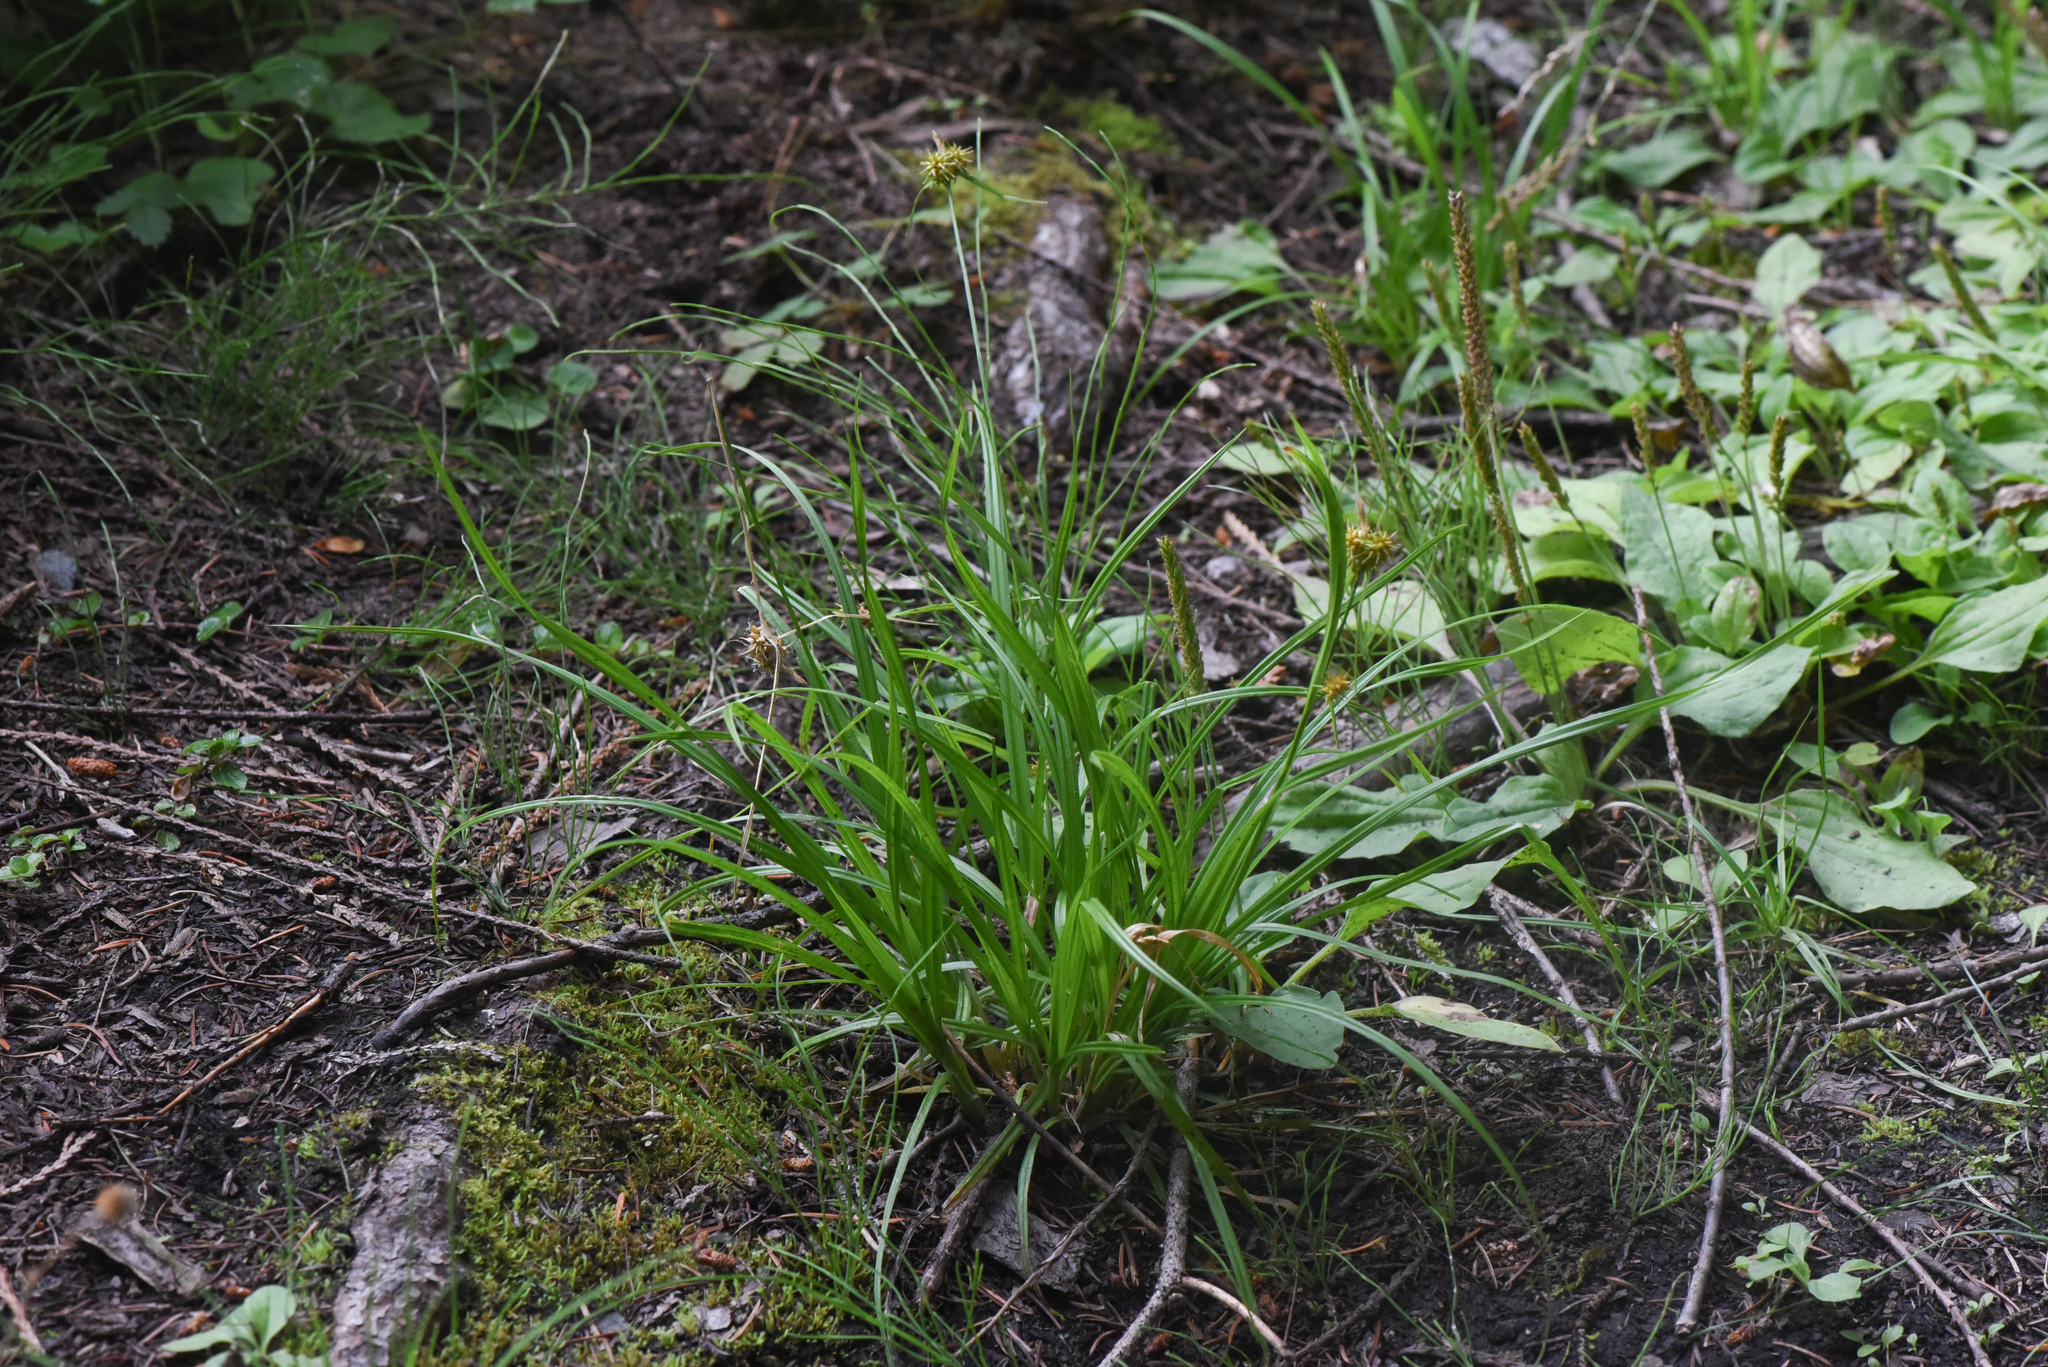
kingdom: Plantae
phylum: Tracheophyta
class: Liliopsida
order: Poales
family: Cyperaceae
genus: Carex
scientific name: Carex flava
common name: Large yellow-sedge
